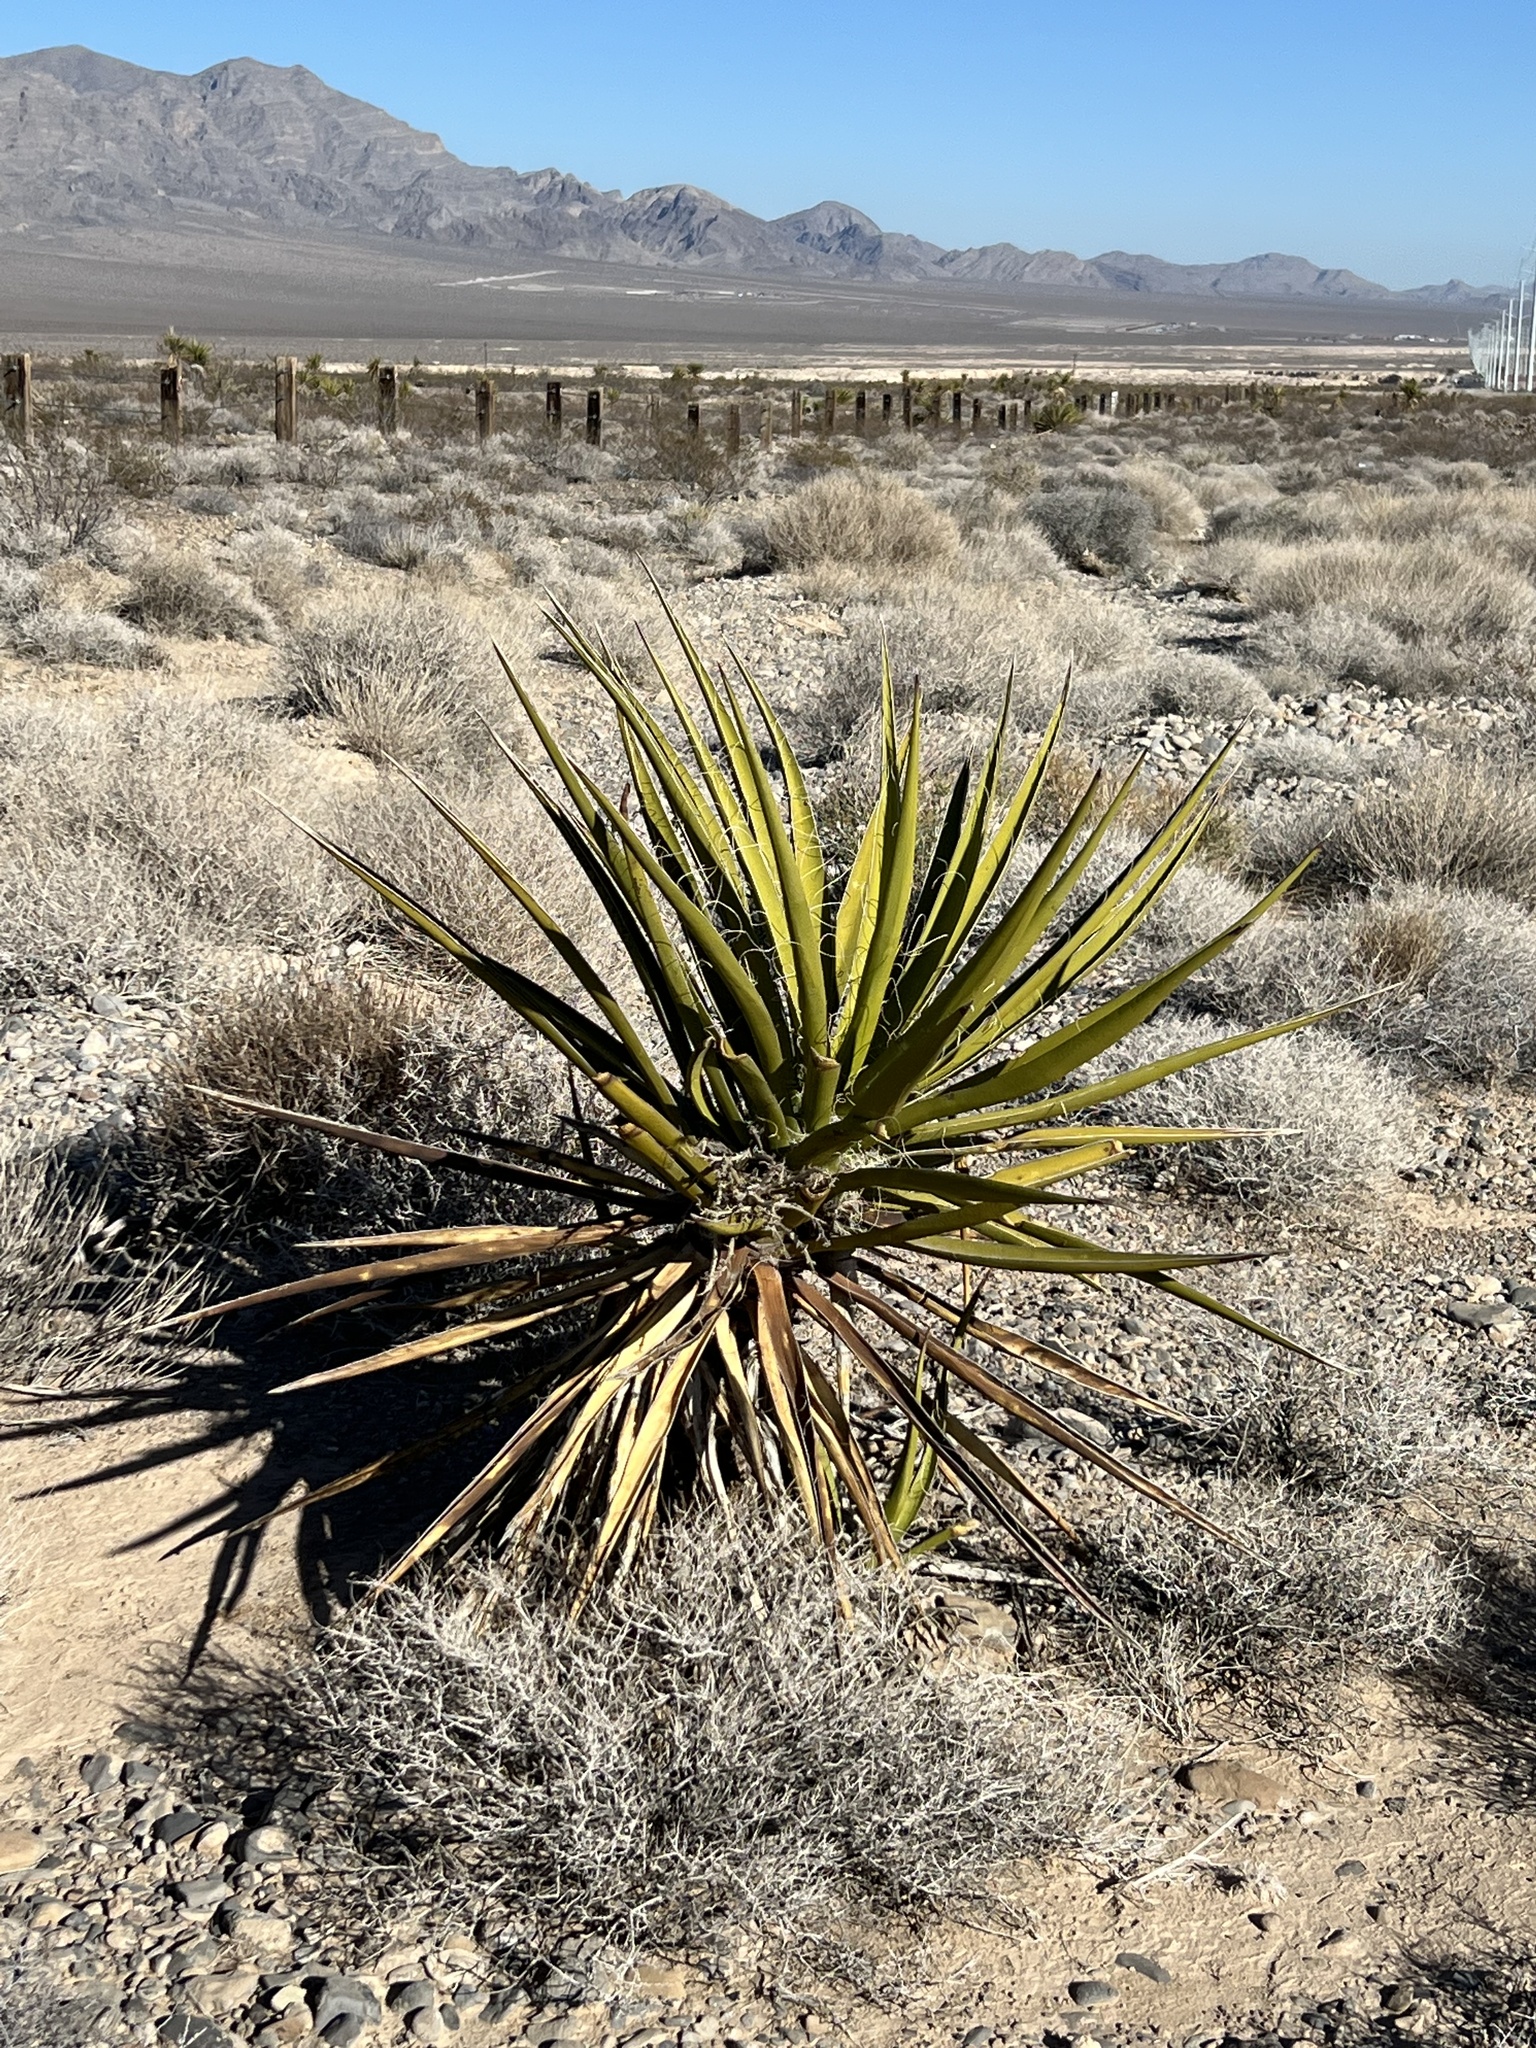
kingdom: Plantae
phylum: Tracheophyta
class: Liliopsida
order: Asparagales
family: Asparagaceae
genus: Yucca
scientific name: Yucca schidigera
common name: Mojave yucca
